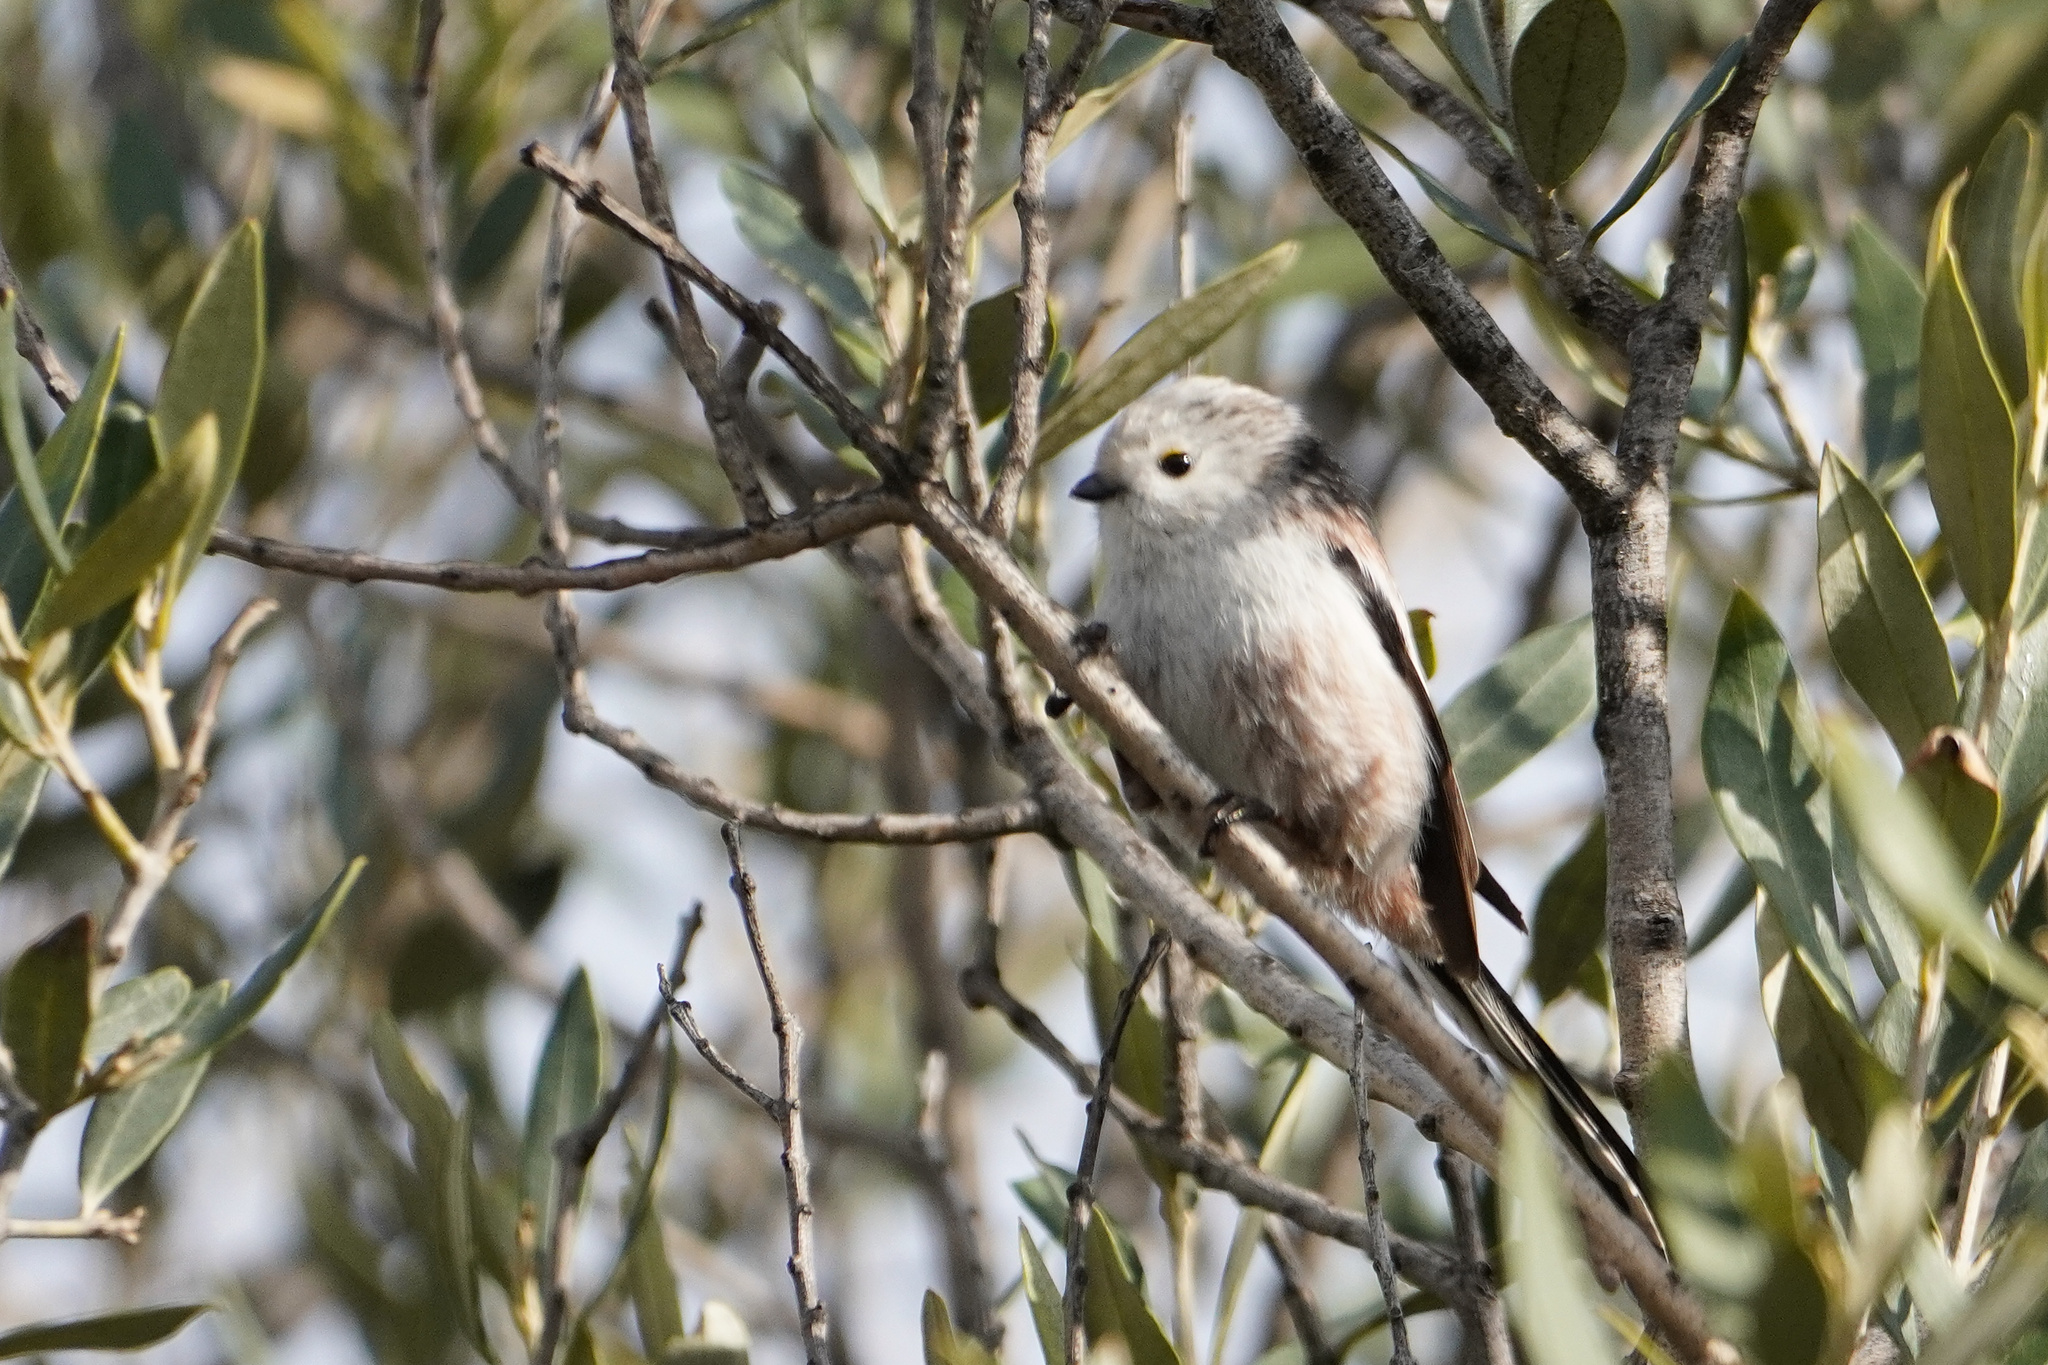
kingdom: Animalia
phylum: Chordata
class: Aves
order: Passeriformes
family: Aegithalidae
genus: Aegithalos
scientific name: Aegithalos caudatus
